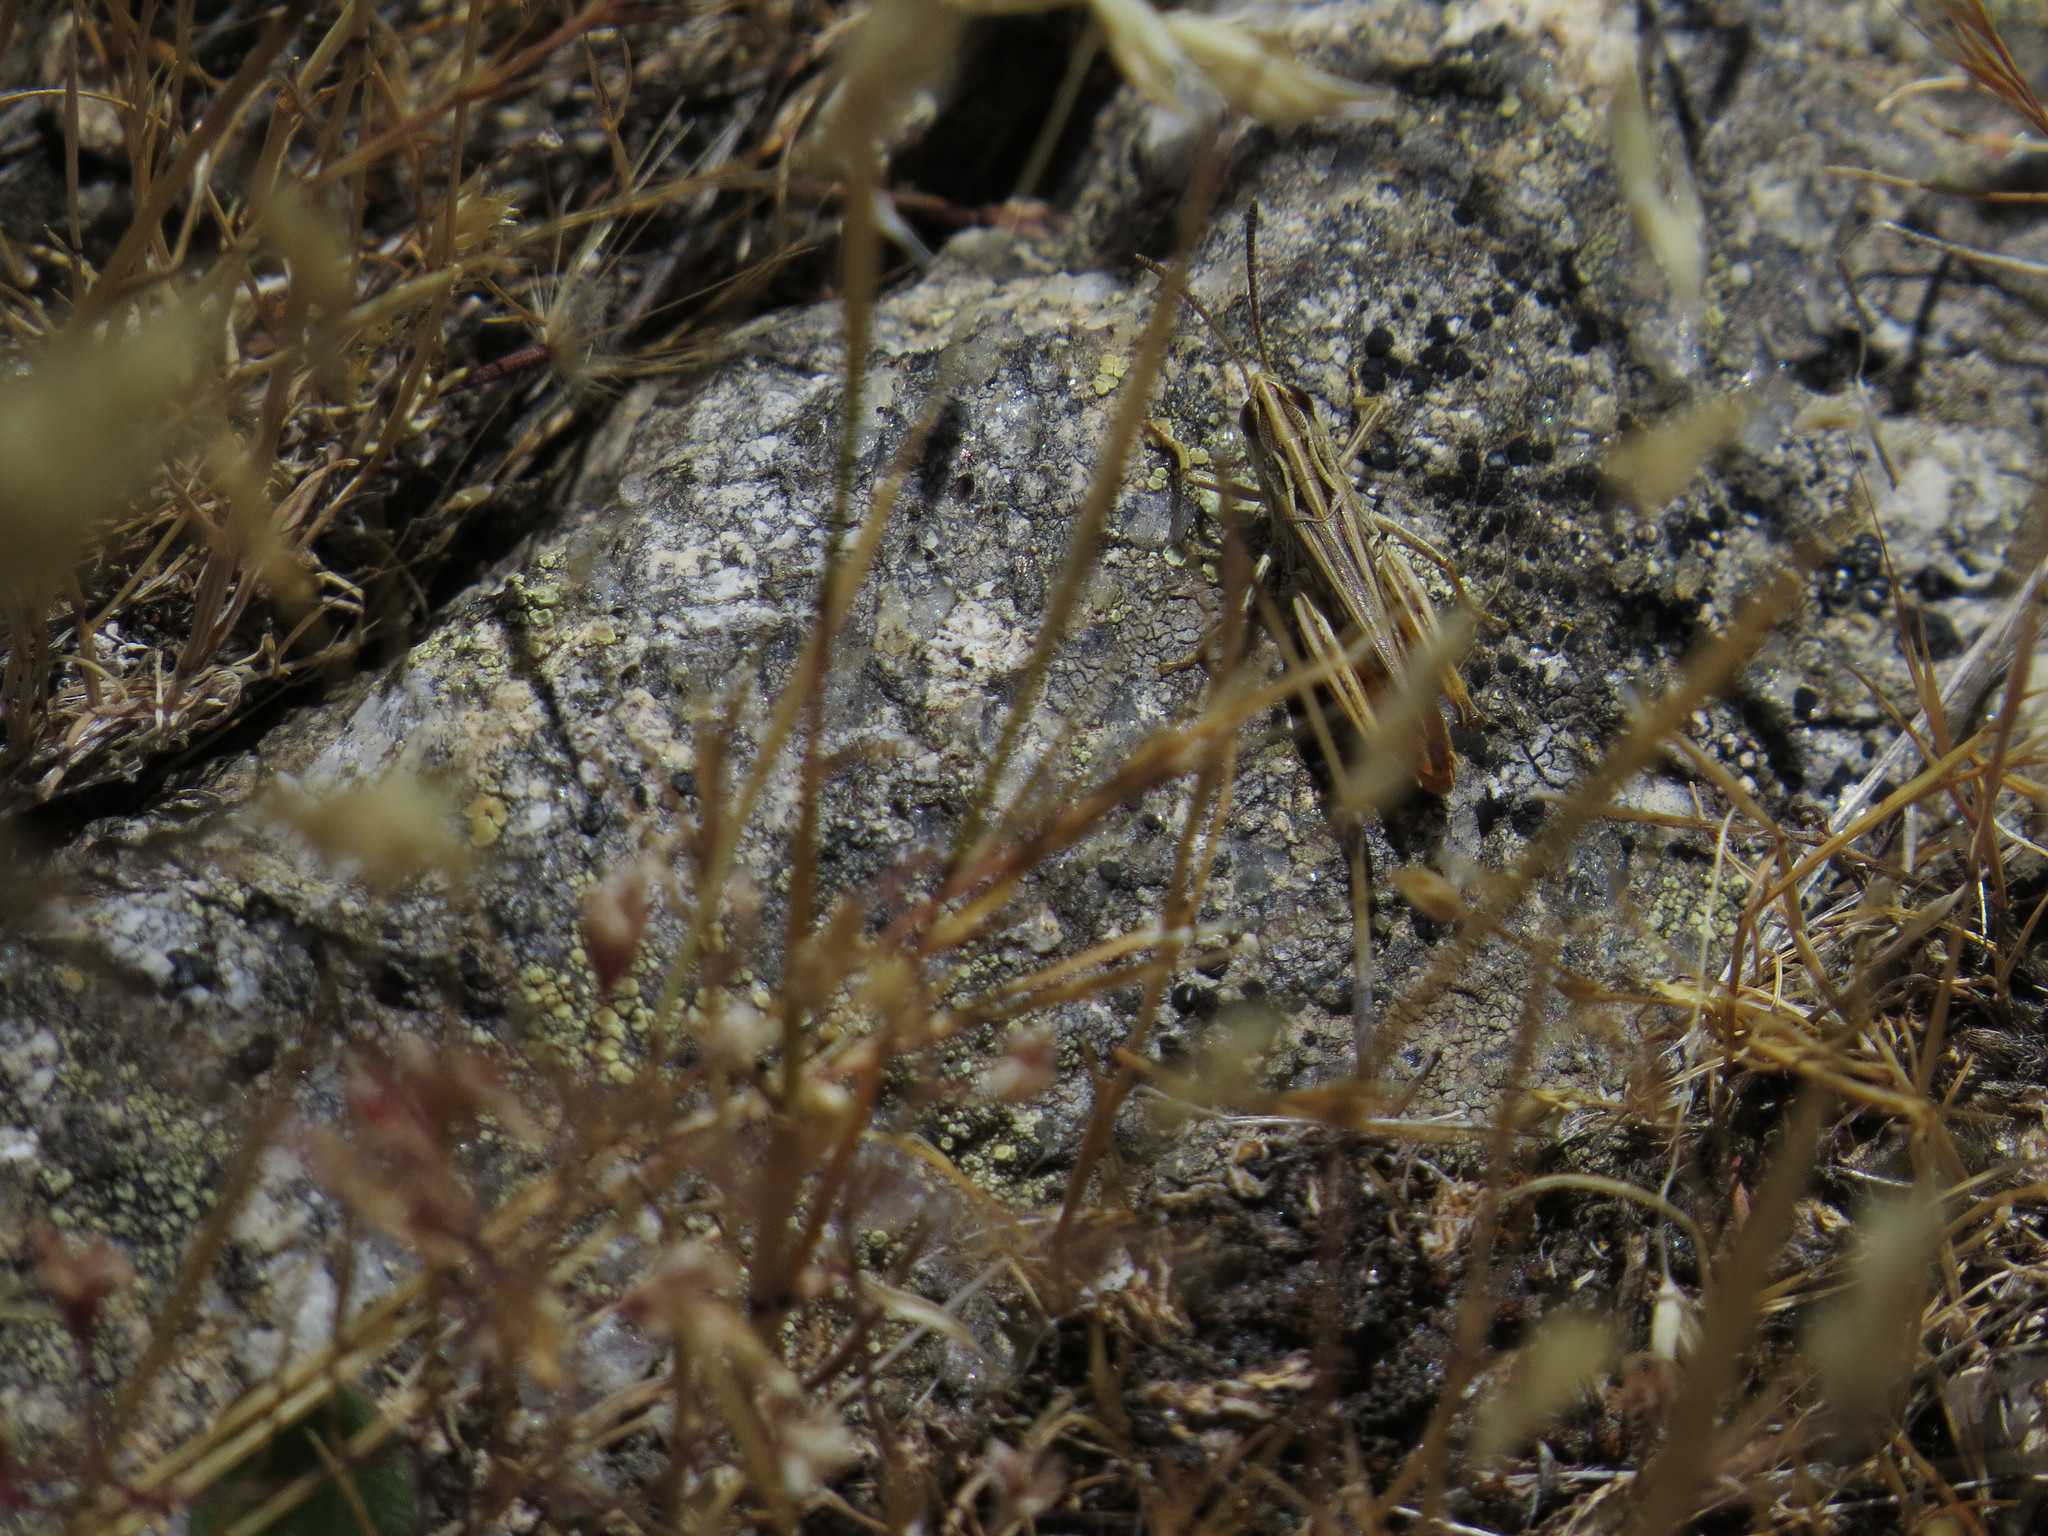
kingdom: Animalia
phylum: Arthropoda
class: Insecta
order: Orthoptera
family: Acrididae
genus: Stenobothrus
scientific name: Stenobothrus stigmaticus
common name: Lesser mottled grasshopper
